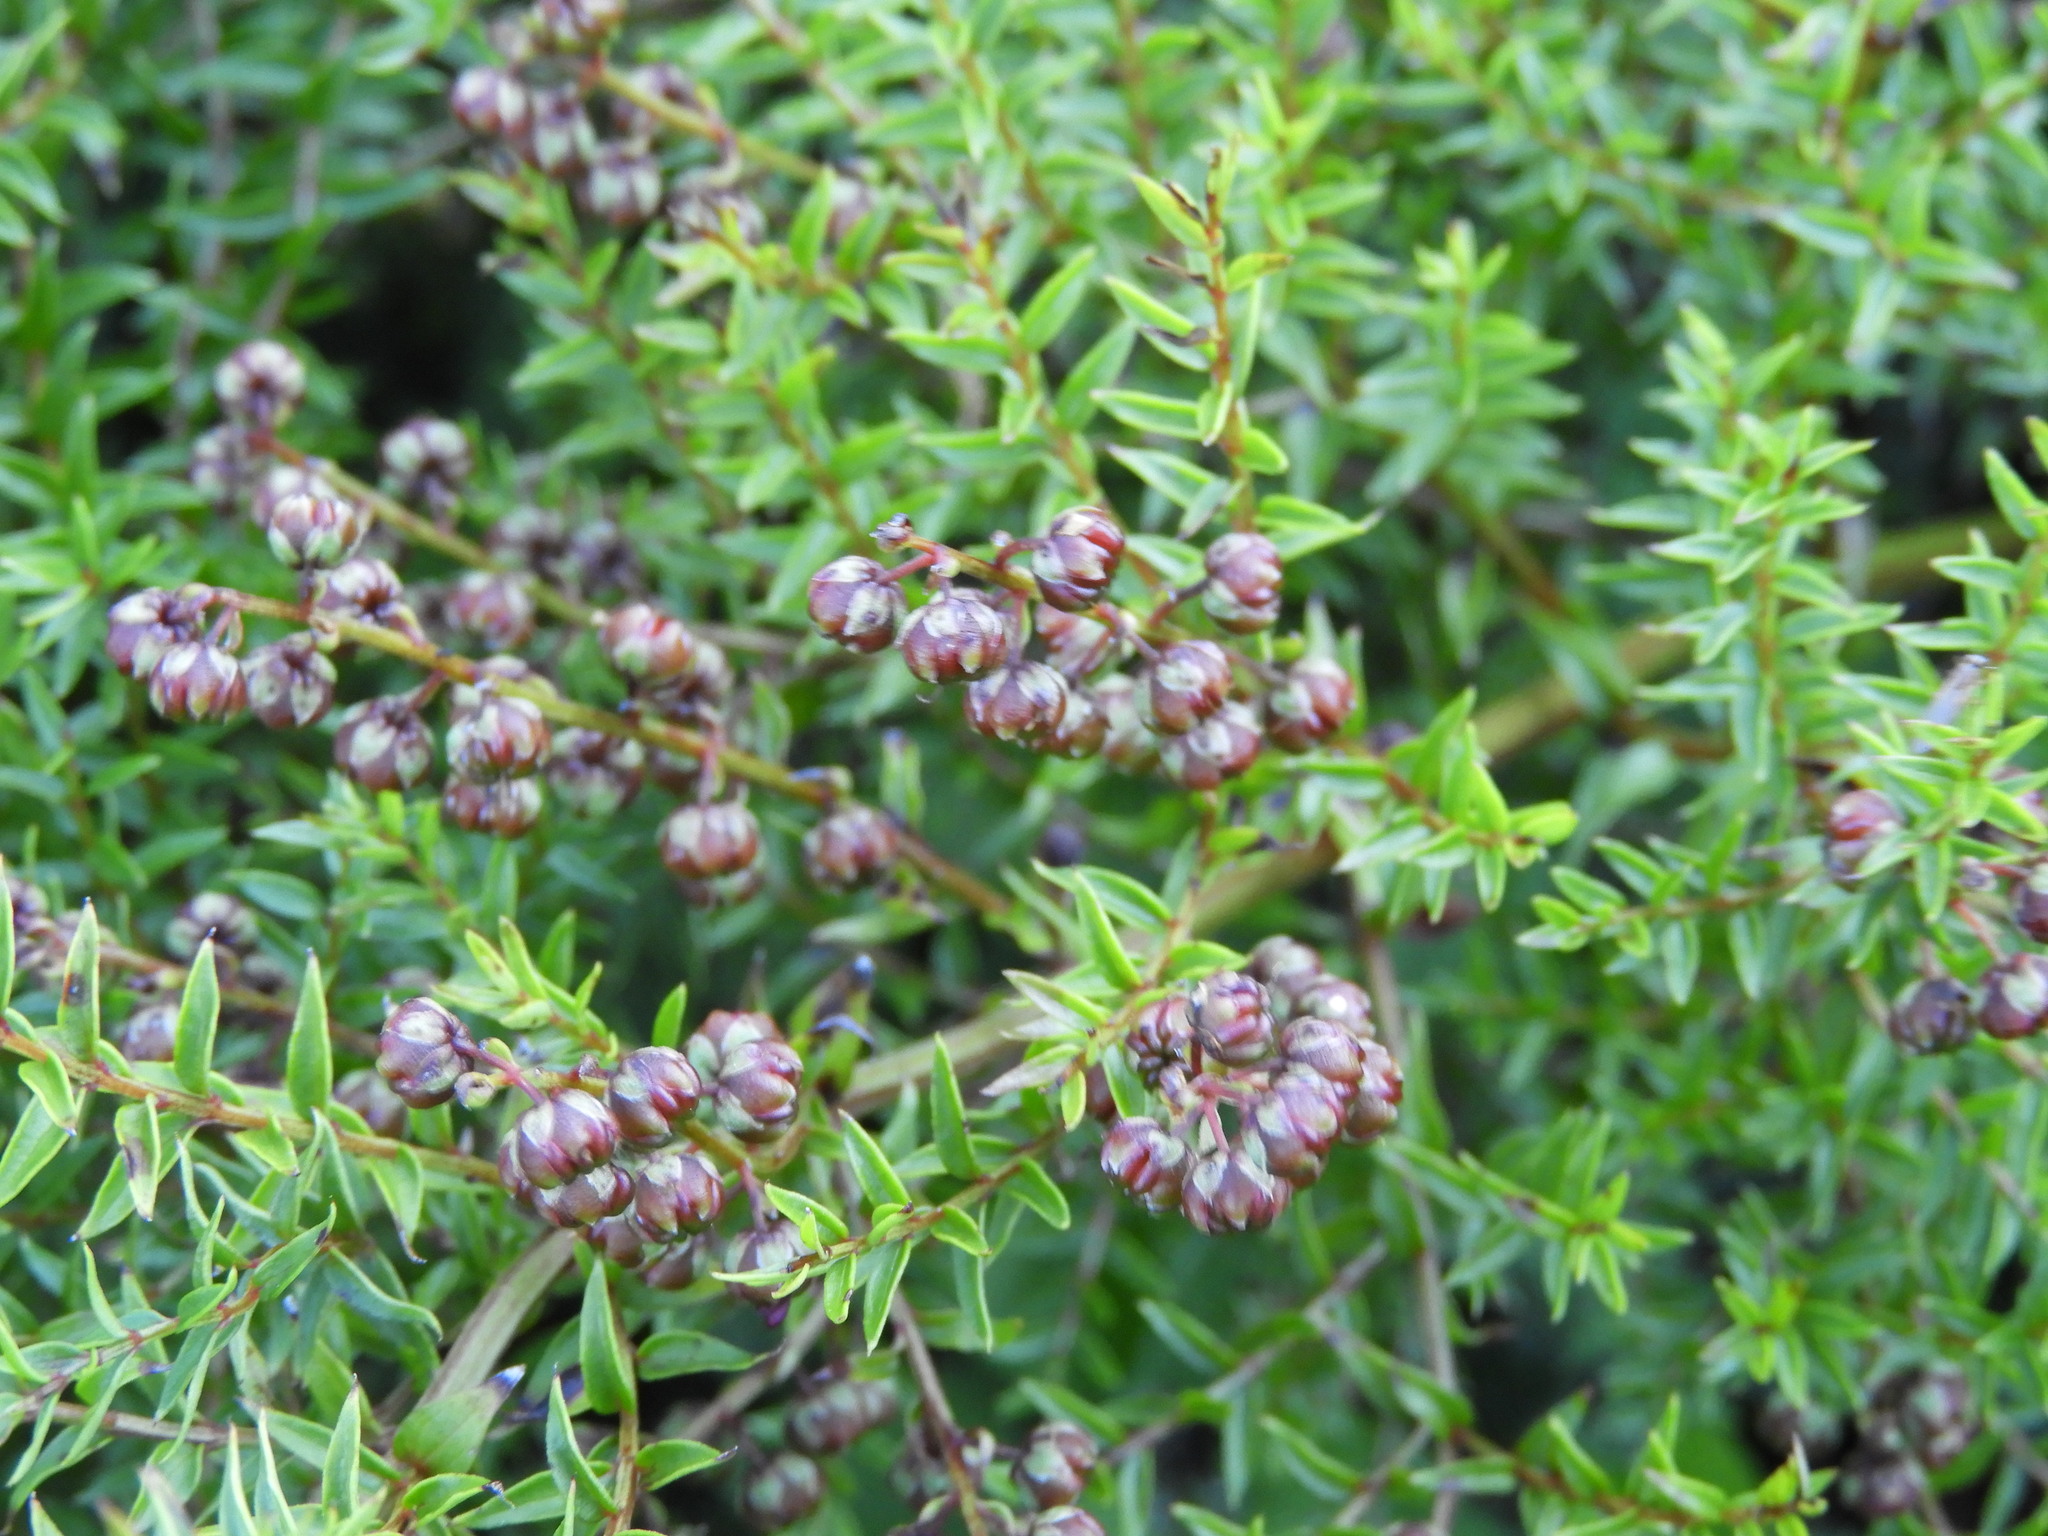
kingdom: Plantae
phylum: Tracheophyta
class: Magnoliopsida
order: Cucurbitales
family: Coriariaceae
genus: Coriaria
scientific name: Coriaria plumosa
